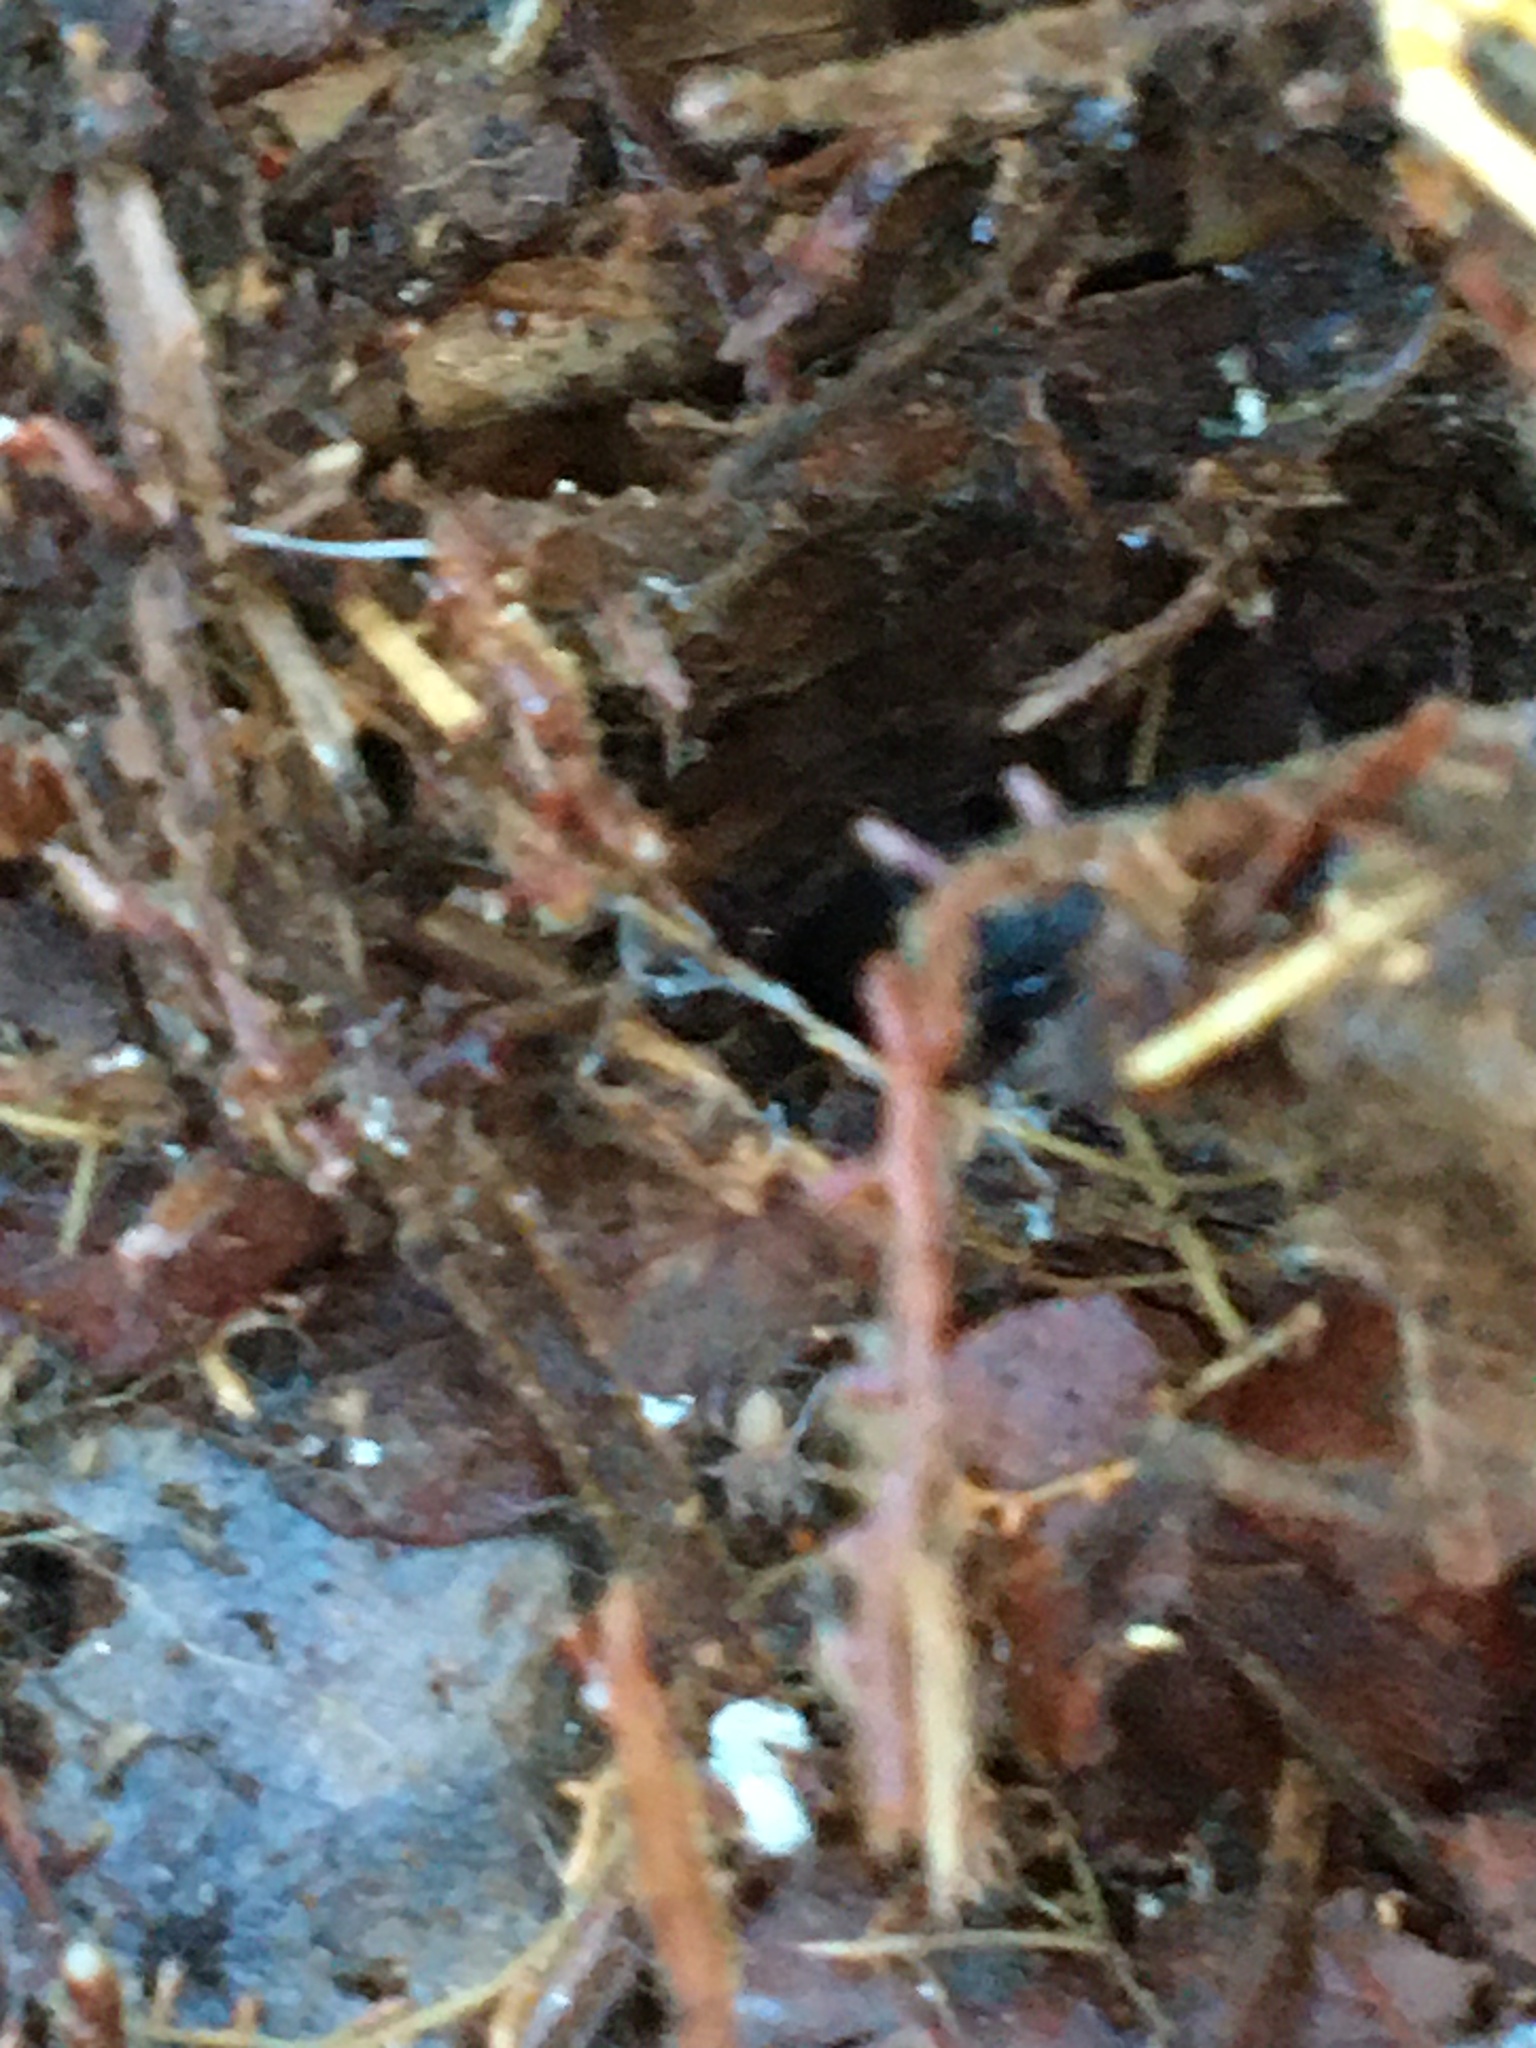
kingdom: Animalia
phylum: Arthropoda
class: Insecta
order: Coleoptera
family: Staphylinidae
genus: Ocypus
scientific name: Ocypus nitens
